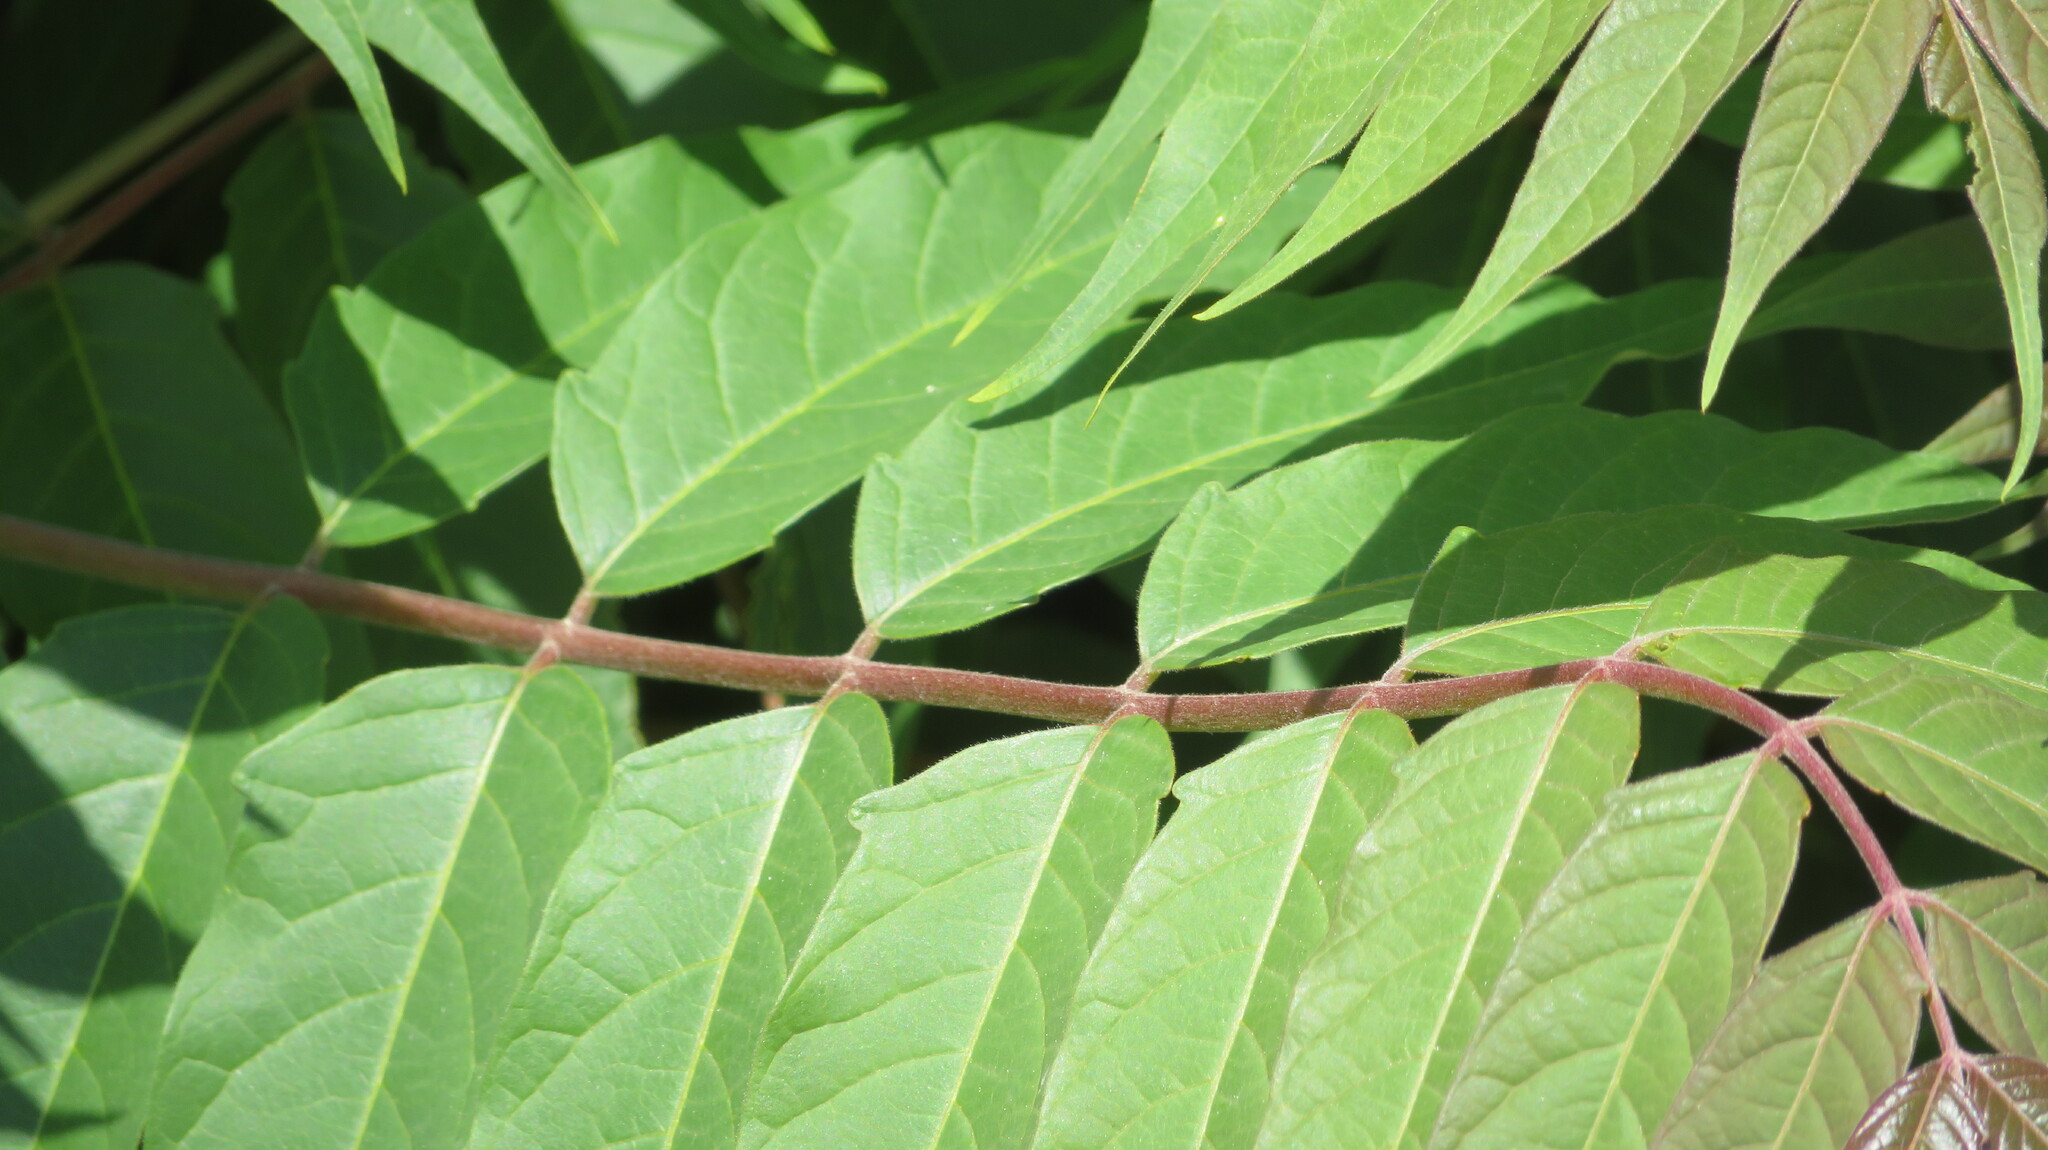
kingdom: Plantae
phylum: Tracheophyta
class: Magnoliopsida
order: Sapindales
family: Simaroubaceae
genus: Ailanthus
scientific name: Ailanthus altissima
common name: Tree-of-heaven
